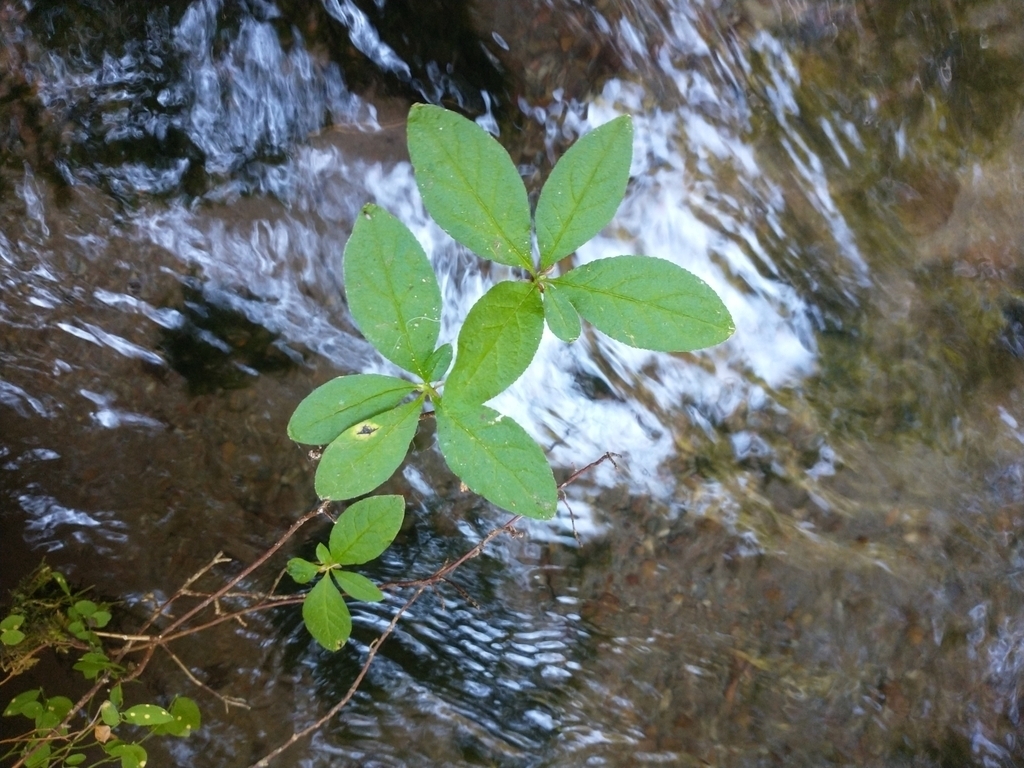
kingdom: Fungi
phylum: Ascomycota
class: Leotiomycetes
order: Rhytismatales
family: Rhytismataceae
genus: Rhytisma
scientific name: Rhytisma
